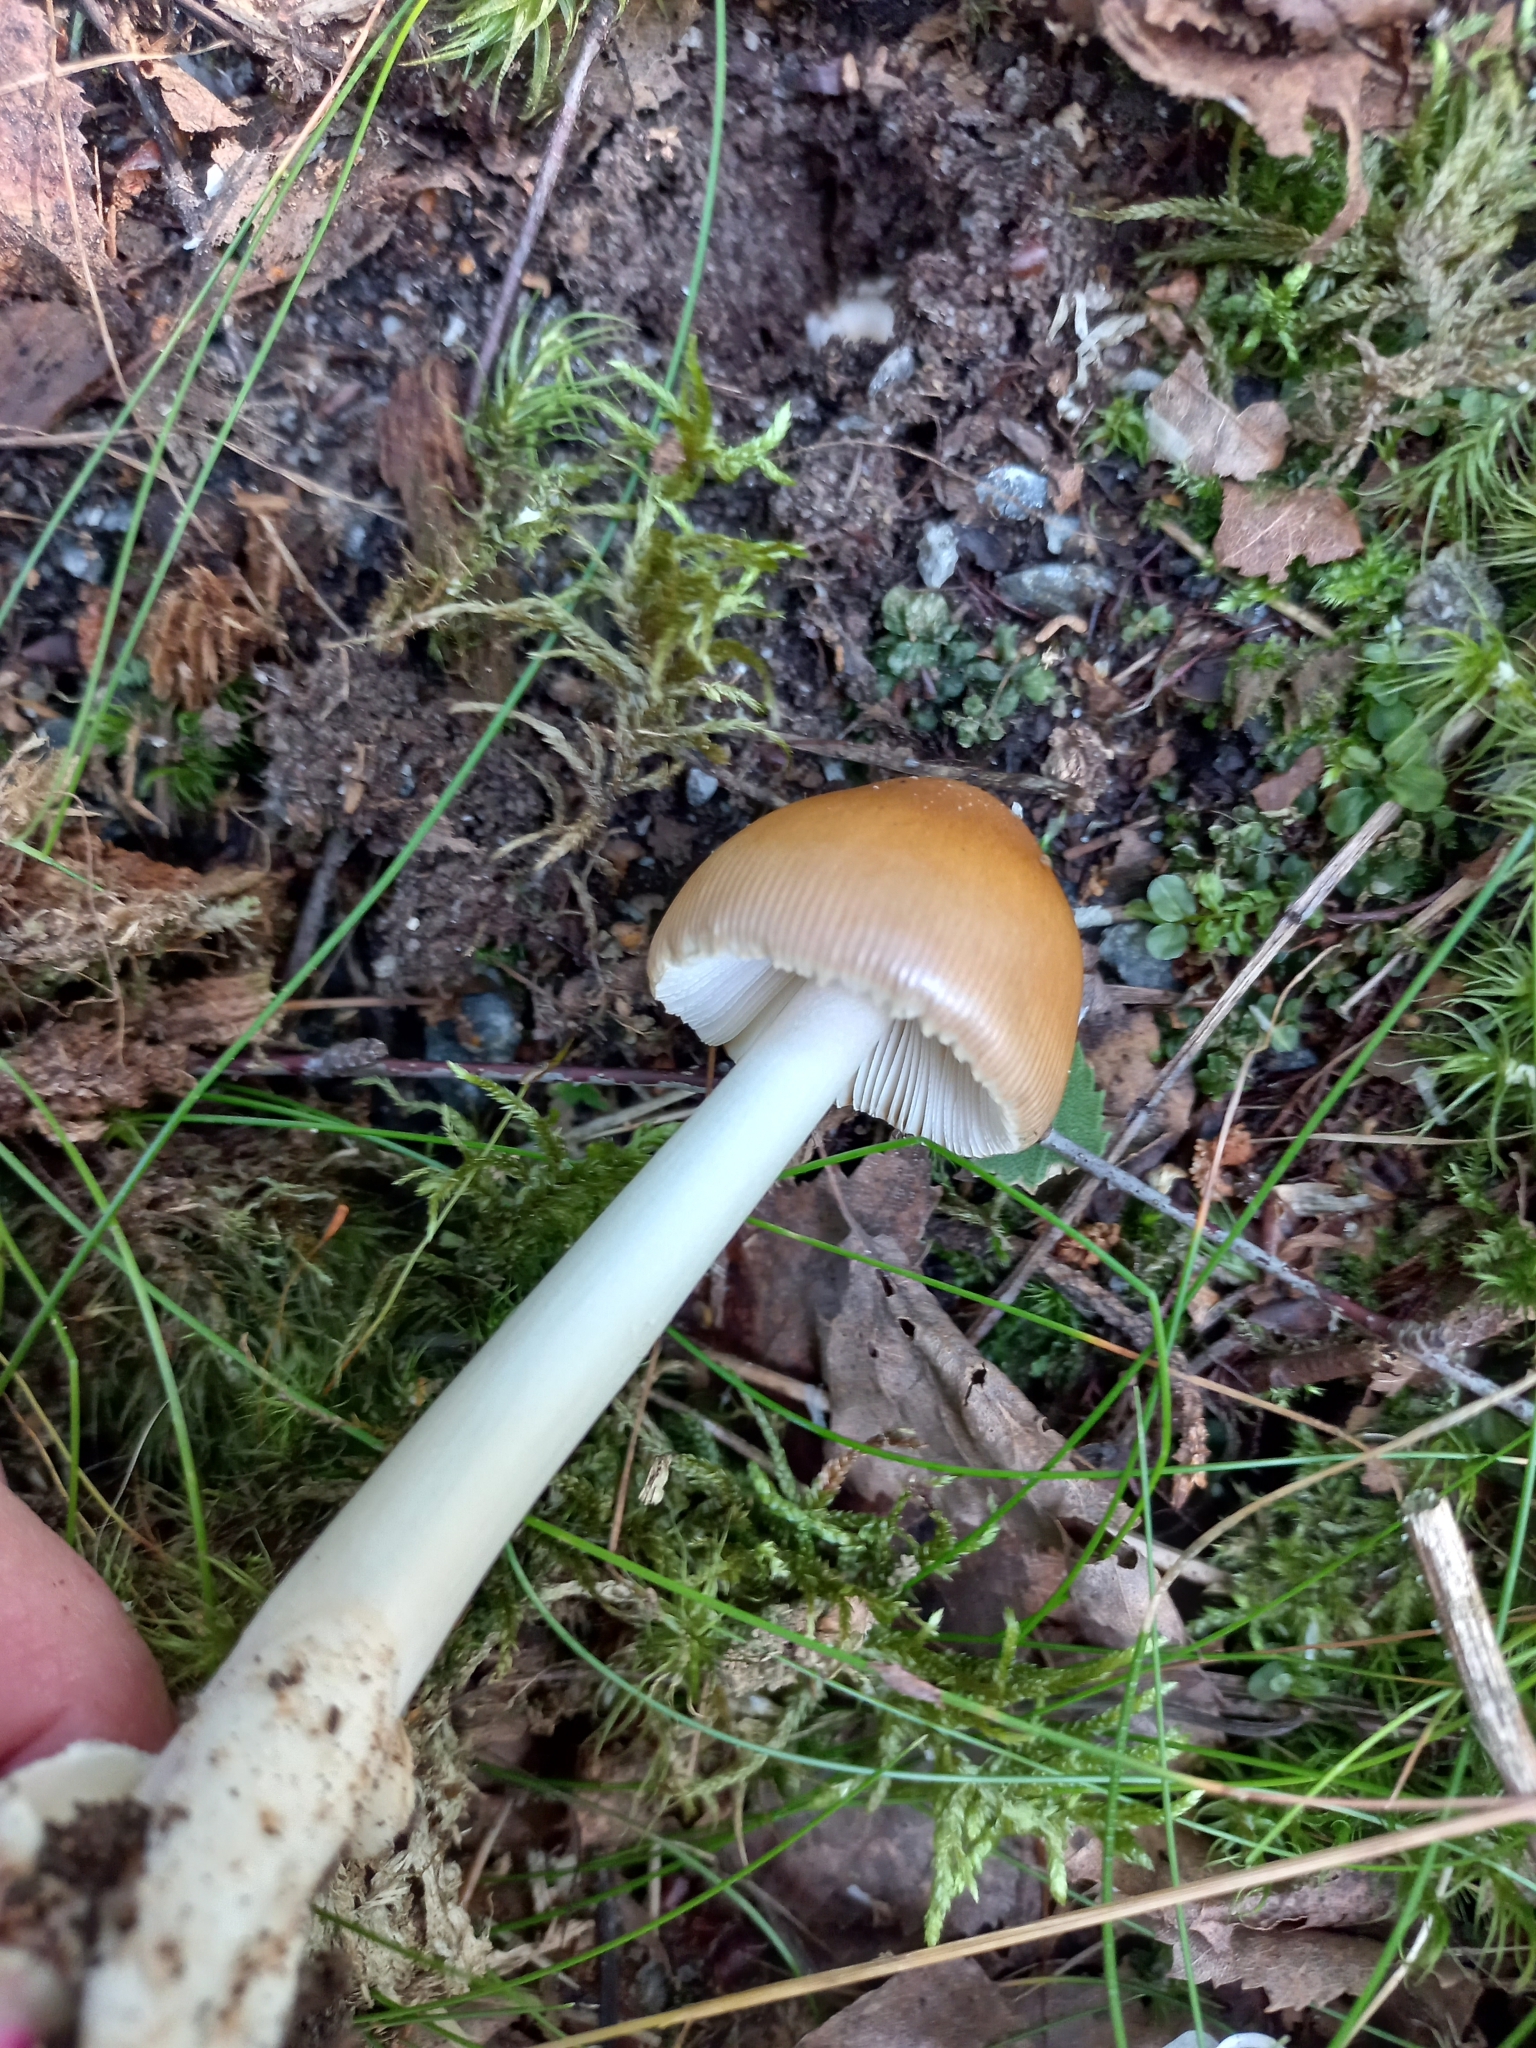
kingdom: Fungi
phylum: Basidiomycota
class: Agaricomycetes
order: Agaricales
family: Amanitaceae
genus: Amanita
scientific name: Amanita fulva
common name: Tawny grisette
